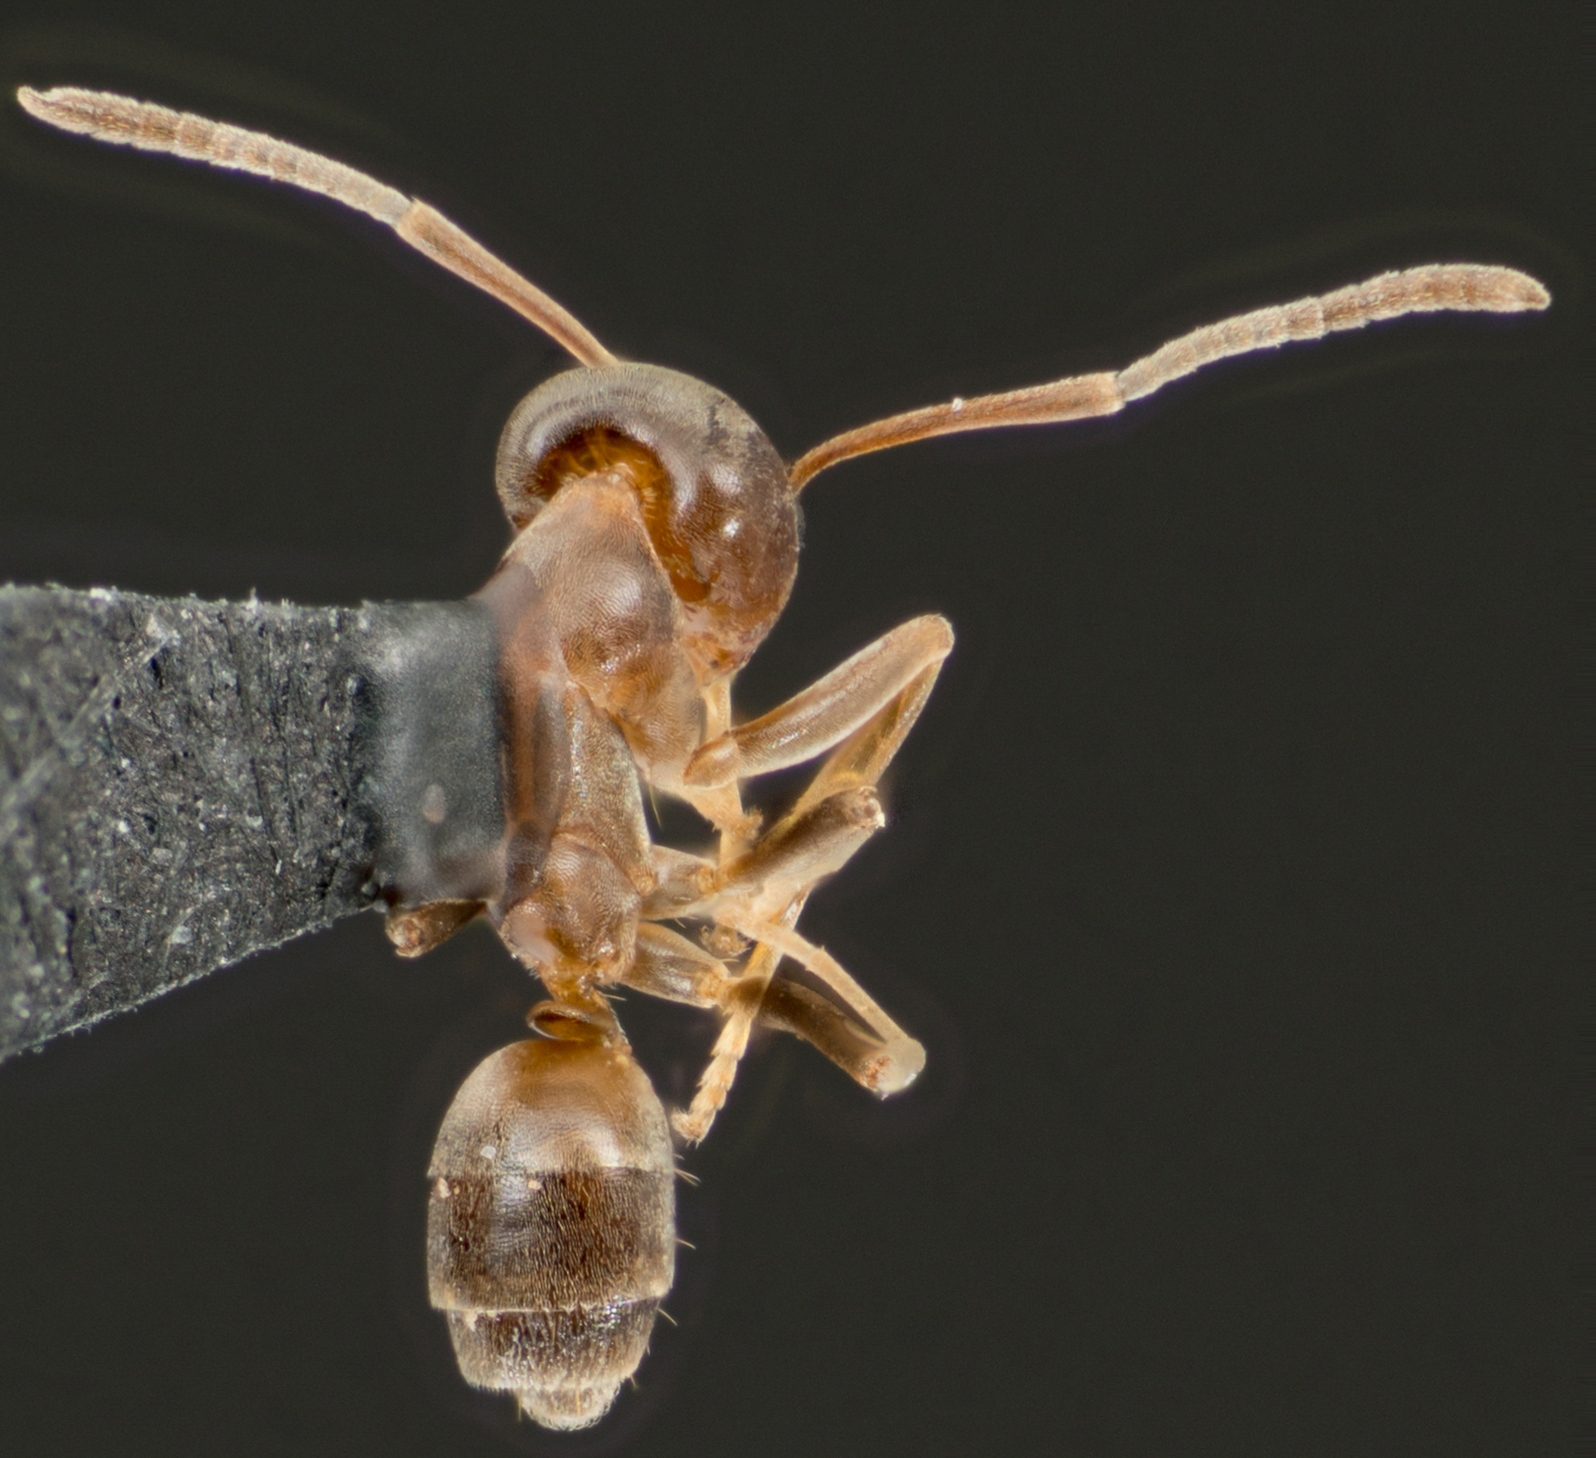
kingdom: Animalia
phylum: Arthropoda
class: Insecta
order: Hymenoptera
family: Formicidae
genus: Linepithema
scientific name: Linepithema humile
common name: Argentine ant
